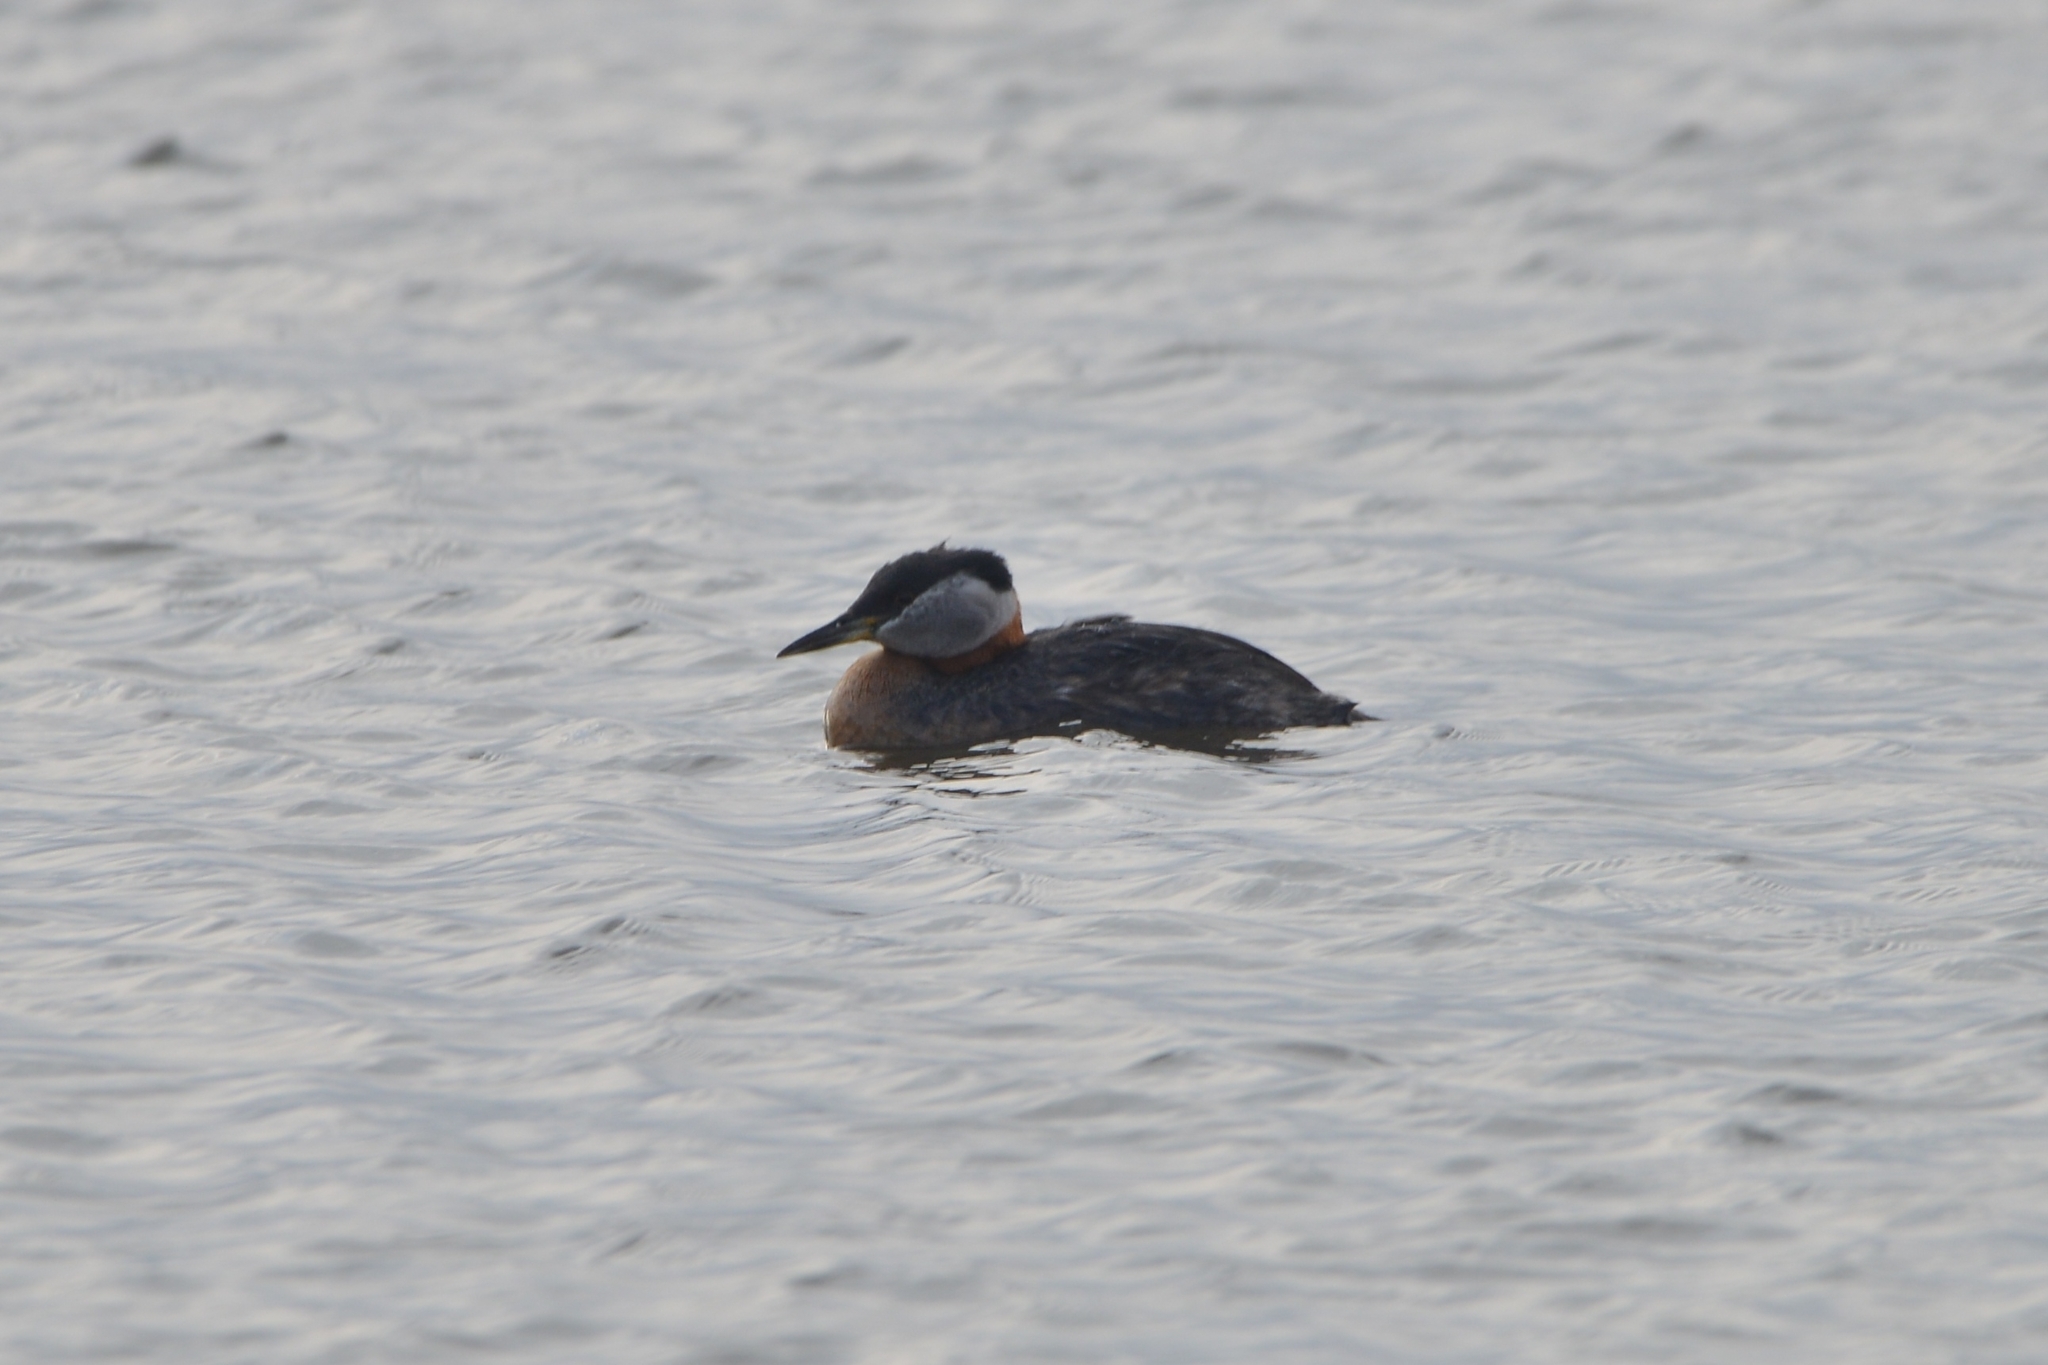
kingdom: Animalia
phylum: Chordata
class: Aves
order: Podicipediformes
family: Podicipedidae
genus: Podiceps
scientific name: Podiceps grisegena
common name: Red-necked grebe
